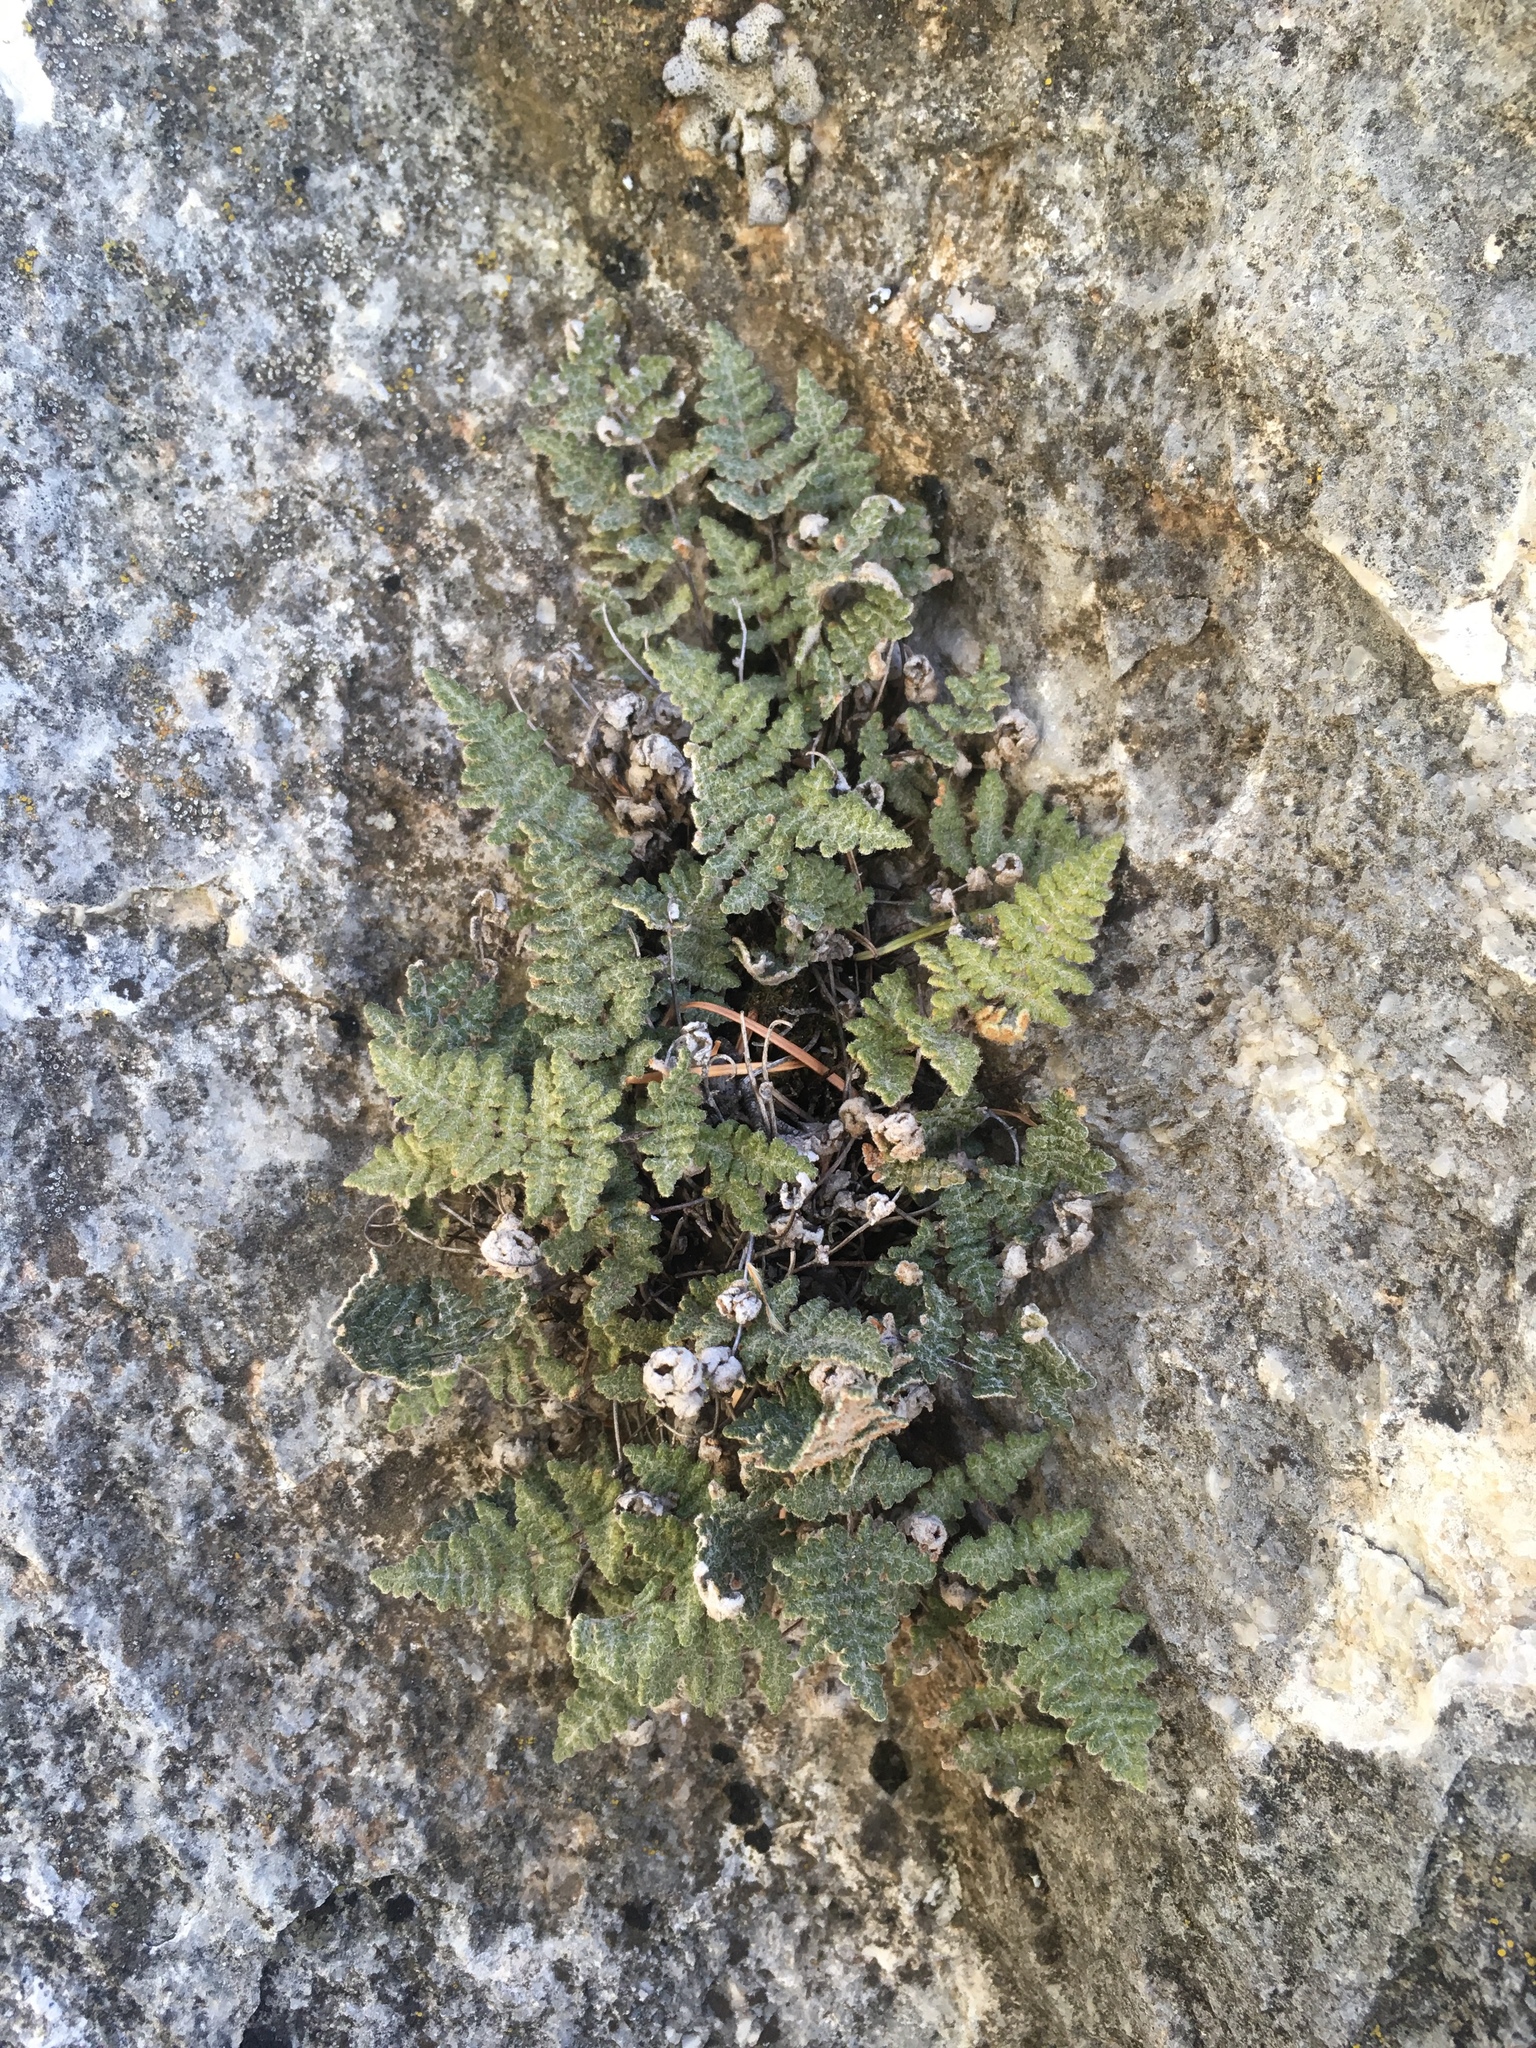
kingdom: Plantae
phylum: Tracheophyta
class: Polypodiopsida
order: Polypodiales
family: Pteridaceae
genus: Myriopteris
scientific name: Myriopteris gracilis
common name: Fee's lip fern
